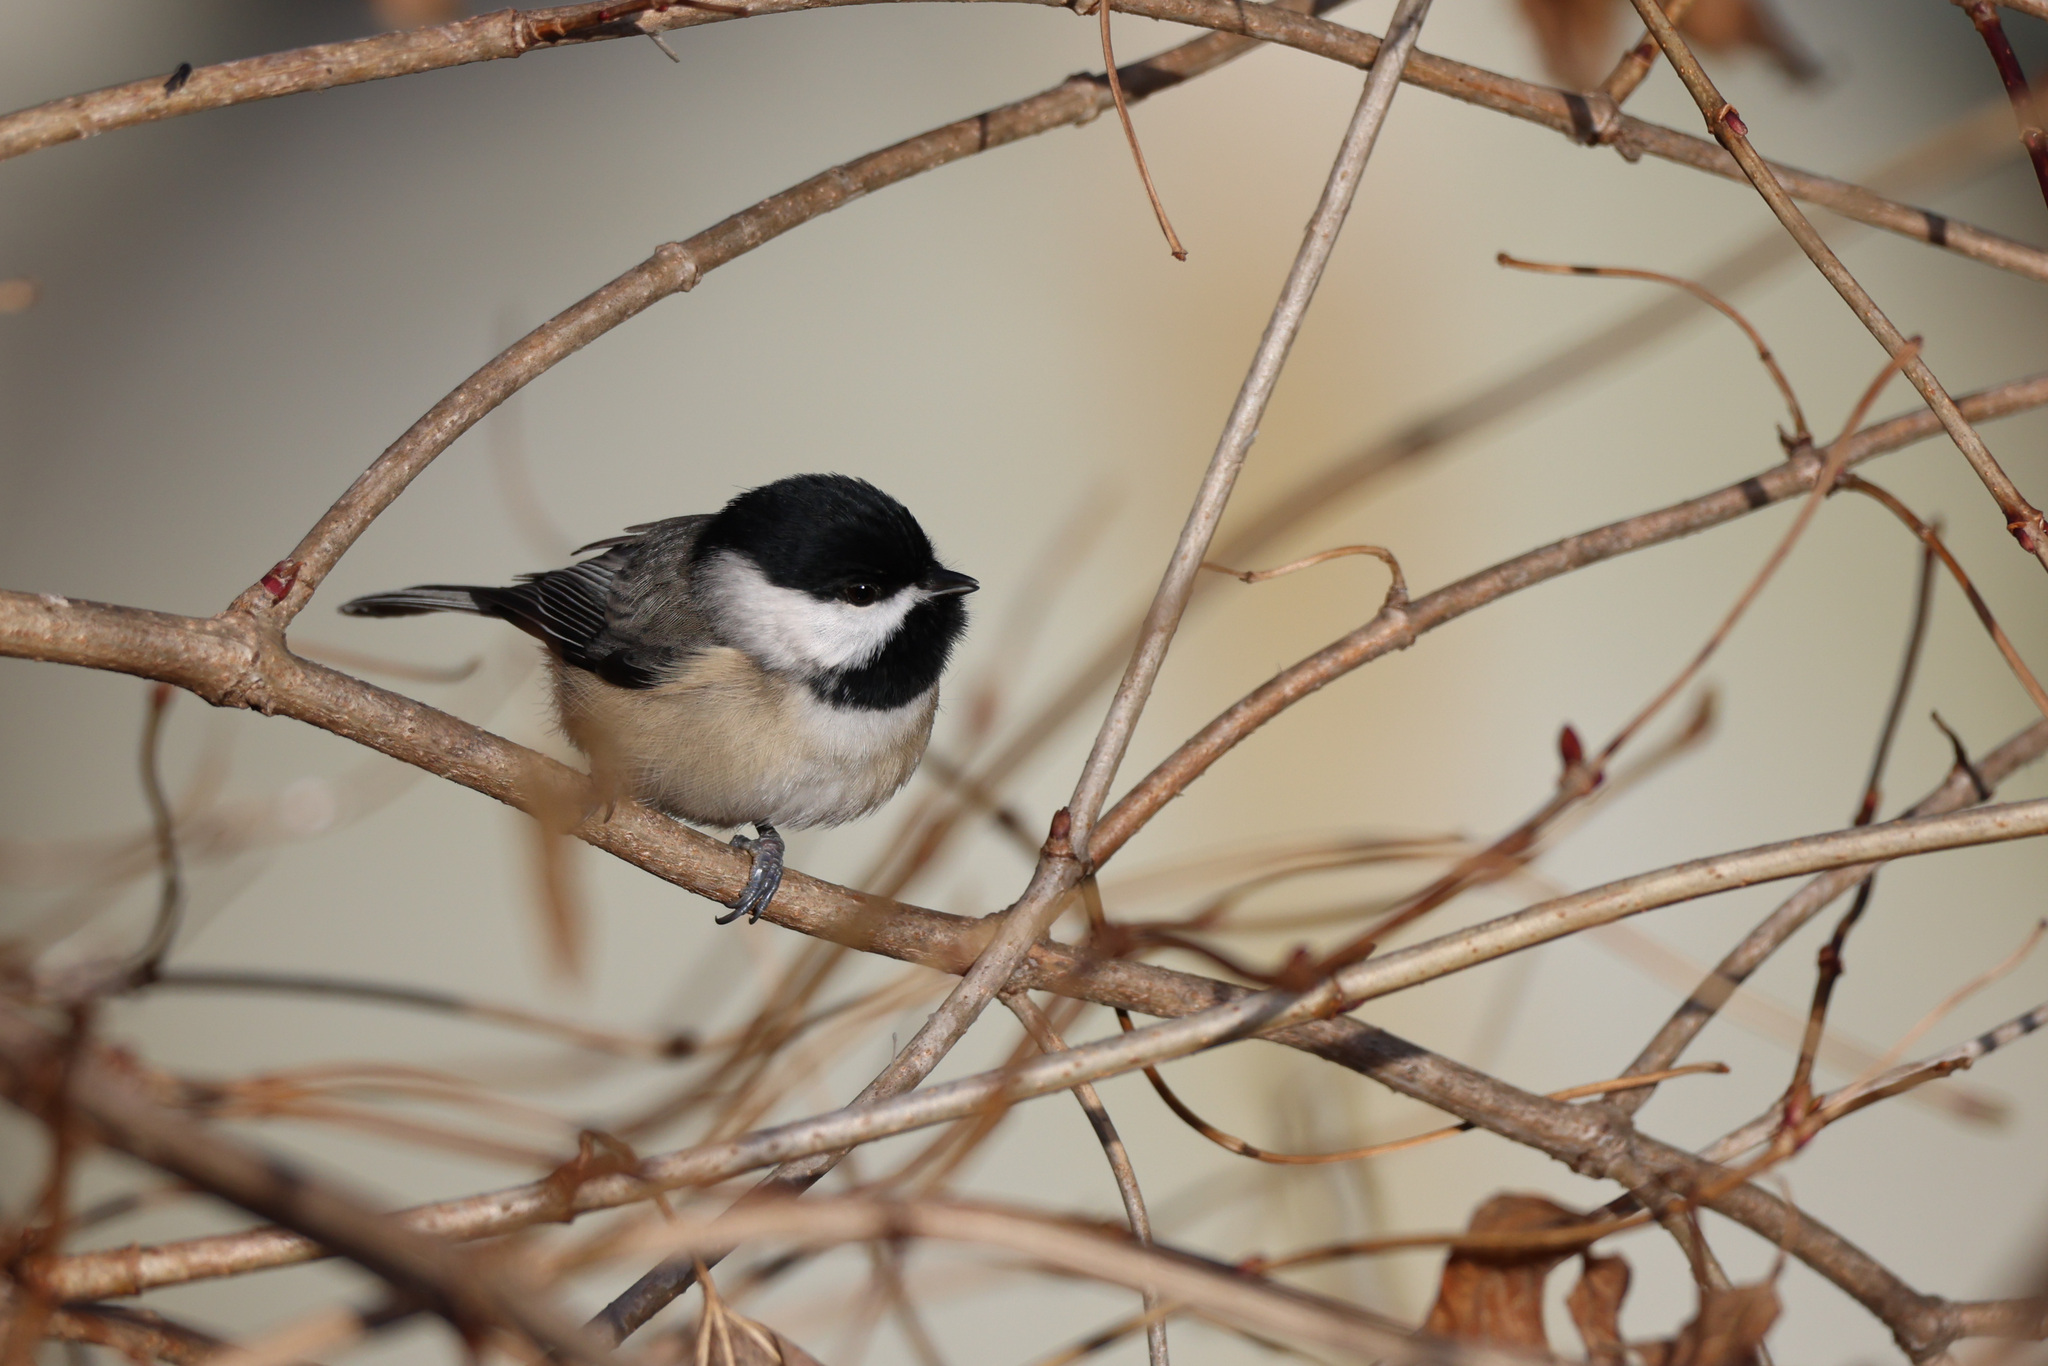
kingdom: Animalia
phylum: Chordata
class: Aves
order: Passeriformes
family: Paridae
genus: Poecile
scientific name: Poecile carolinensis
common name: Carolina chickadee
